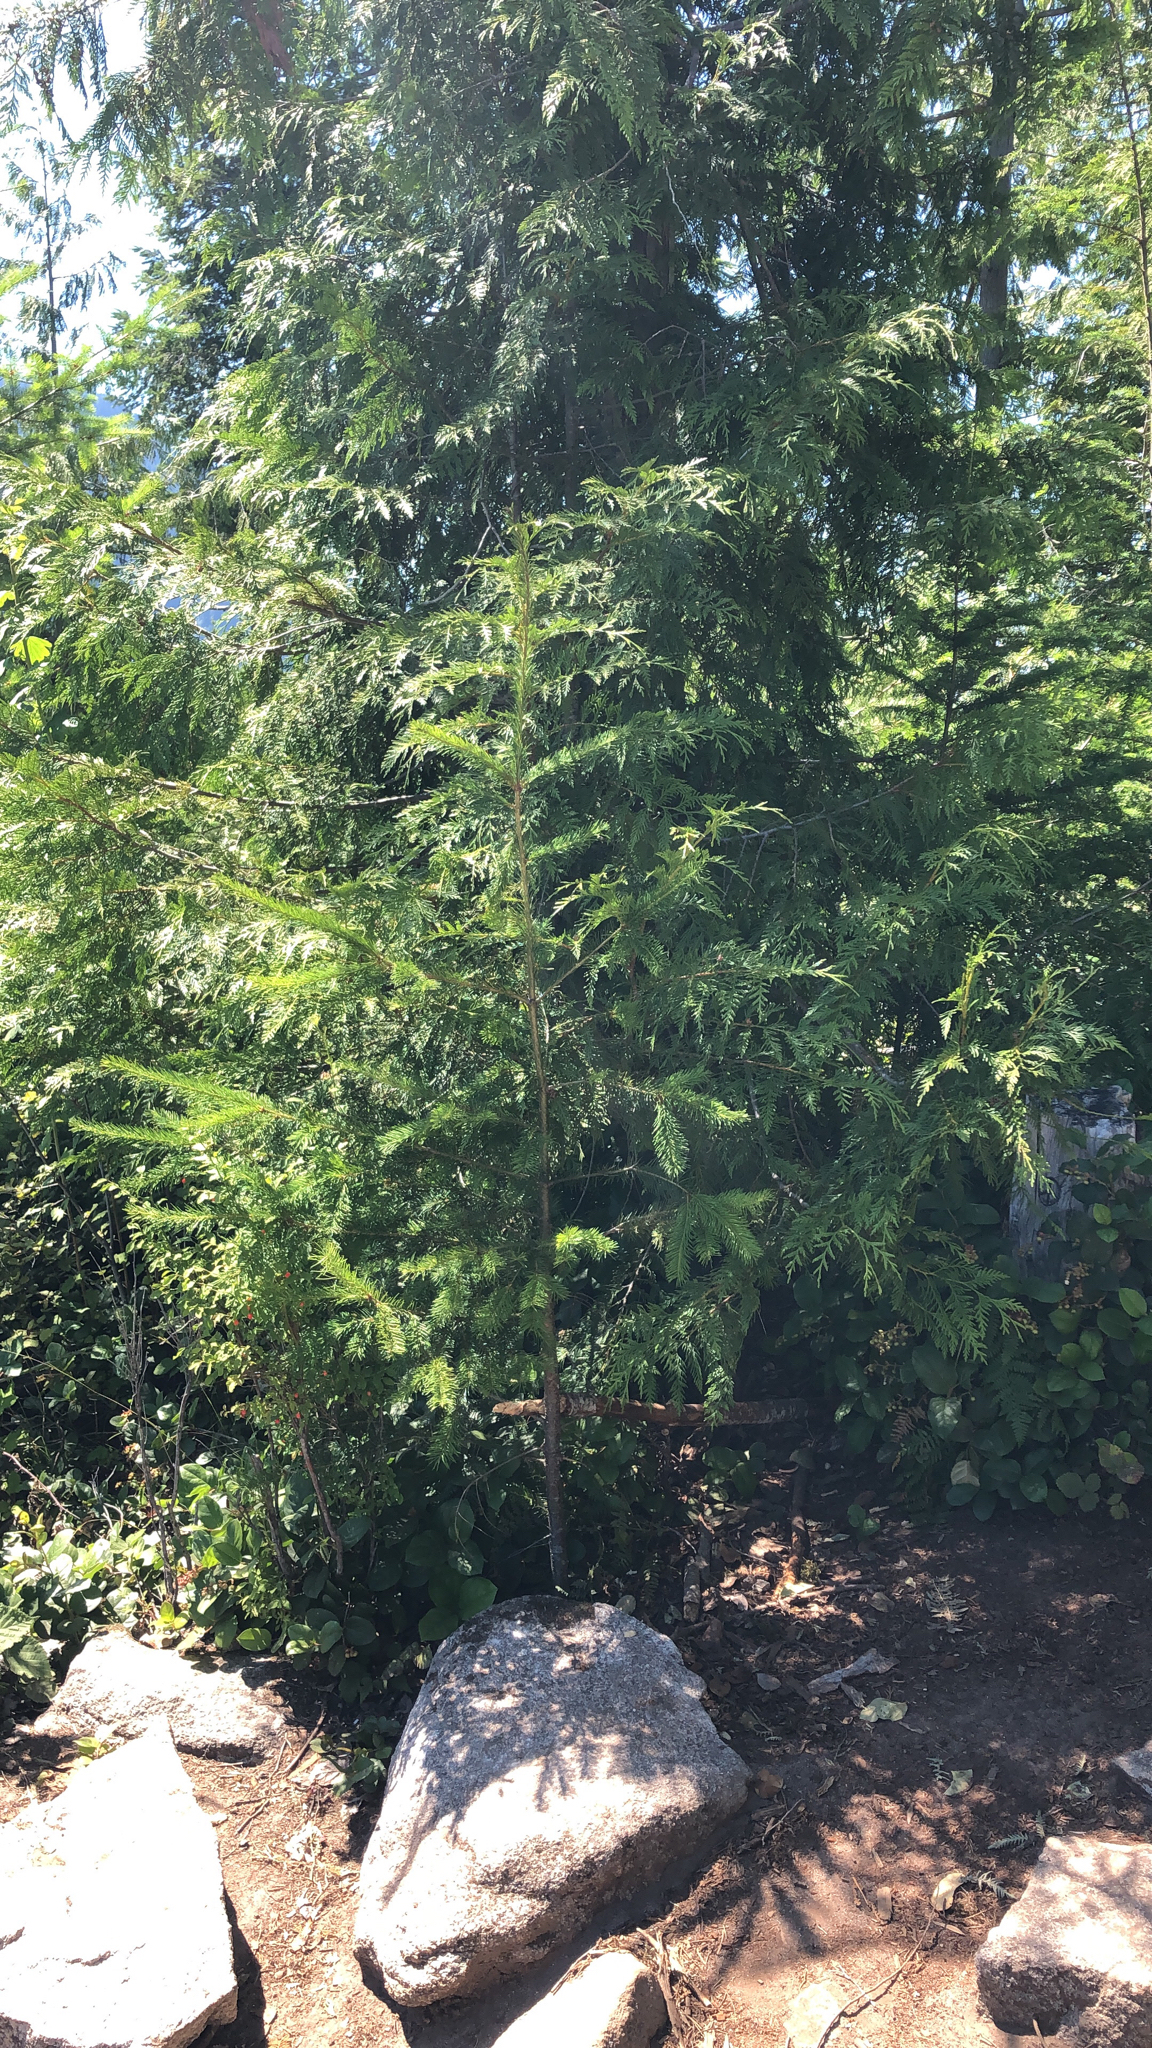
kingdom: Plantae
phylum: Tracheophyta
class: Pinopsida
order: Pinales
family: Cupressaceae
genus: Thuja
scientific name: Thuja plicata
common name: Western red-cedar
